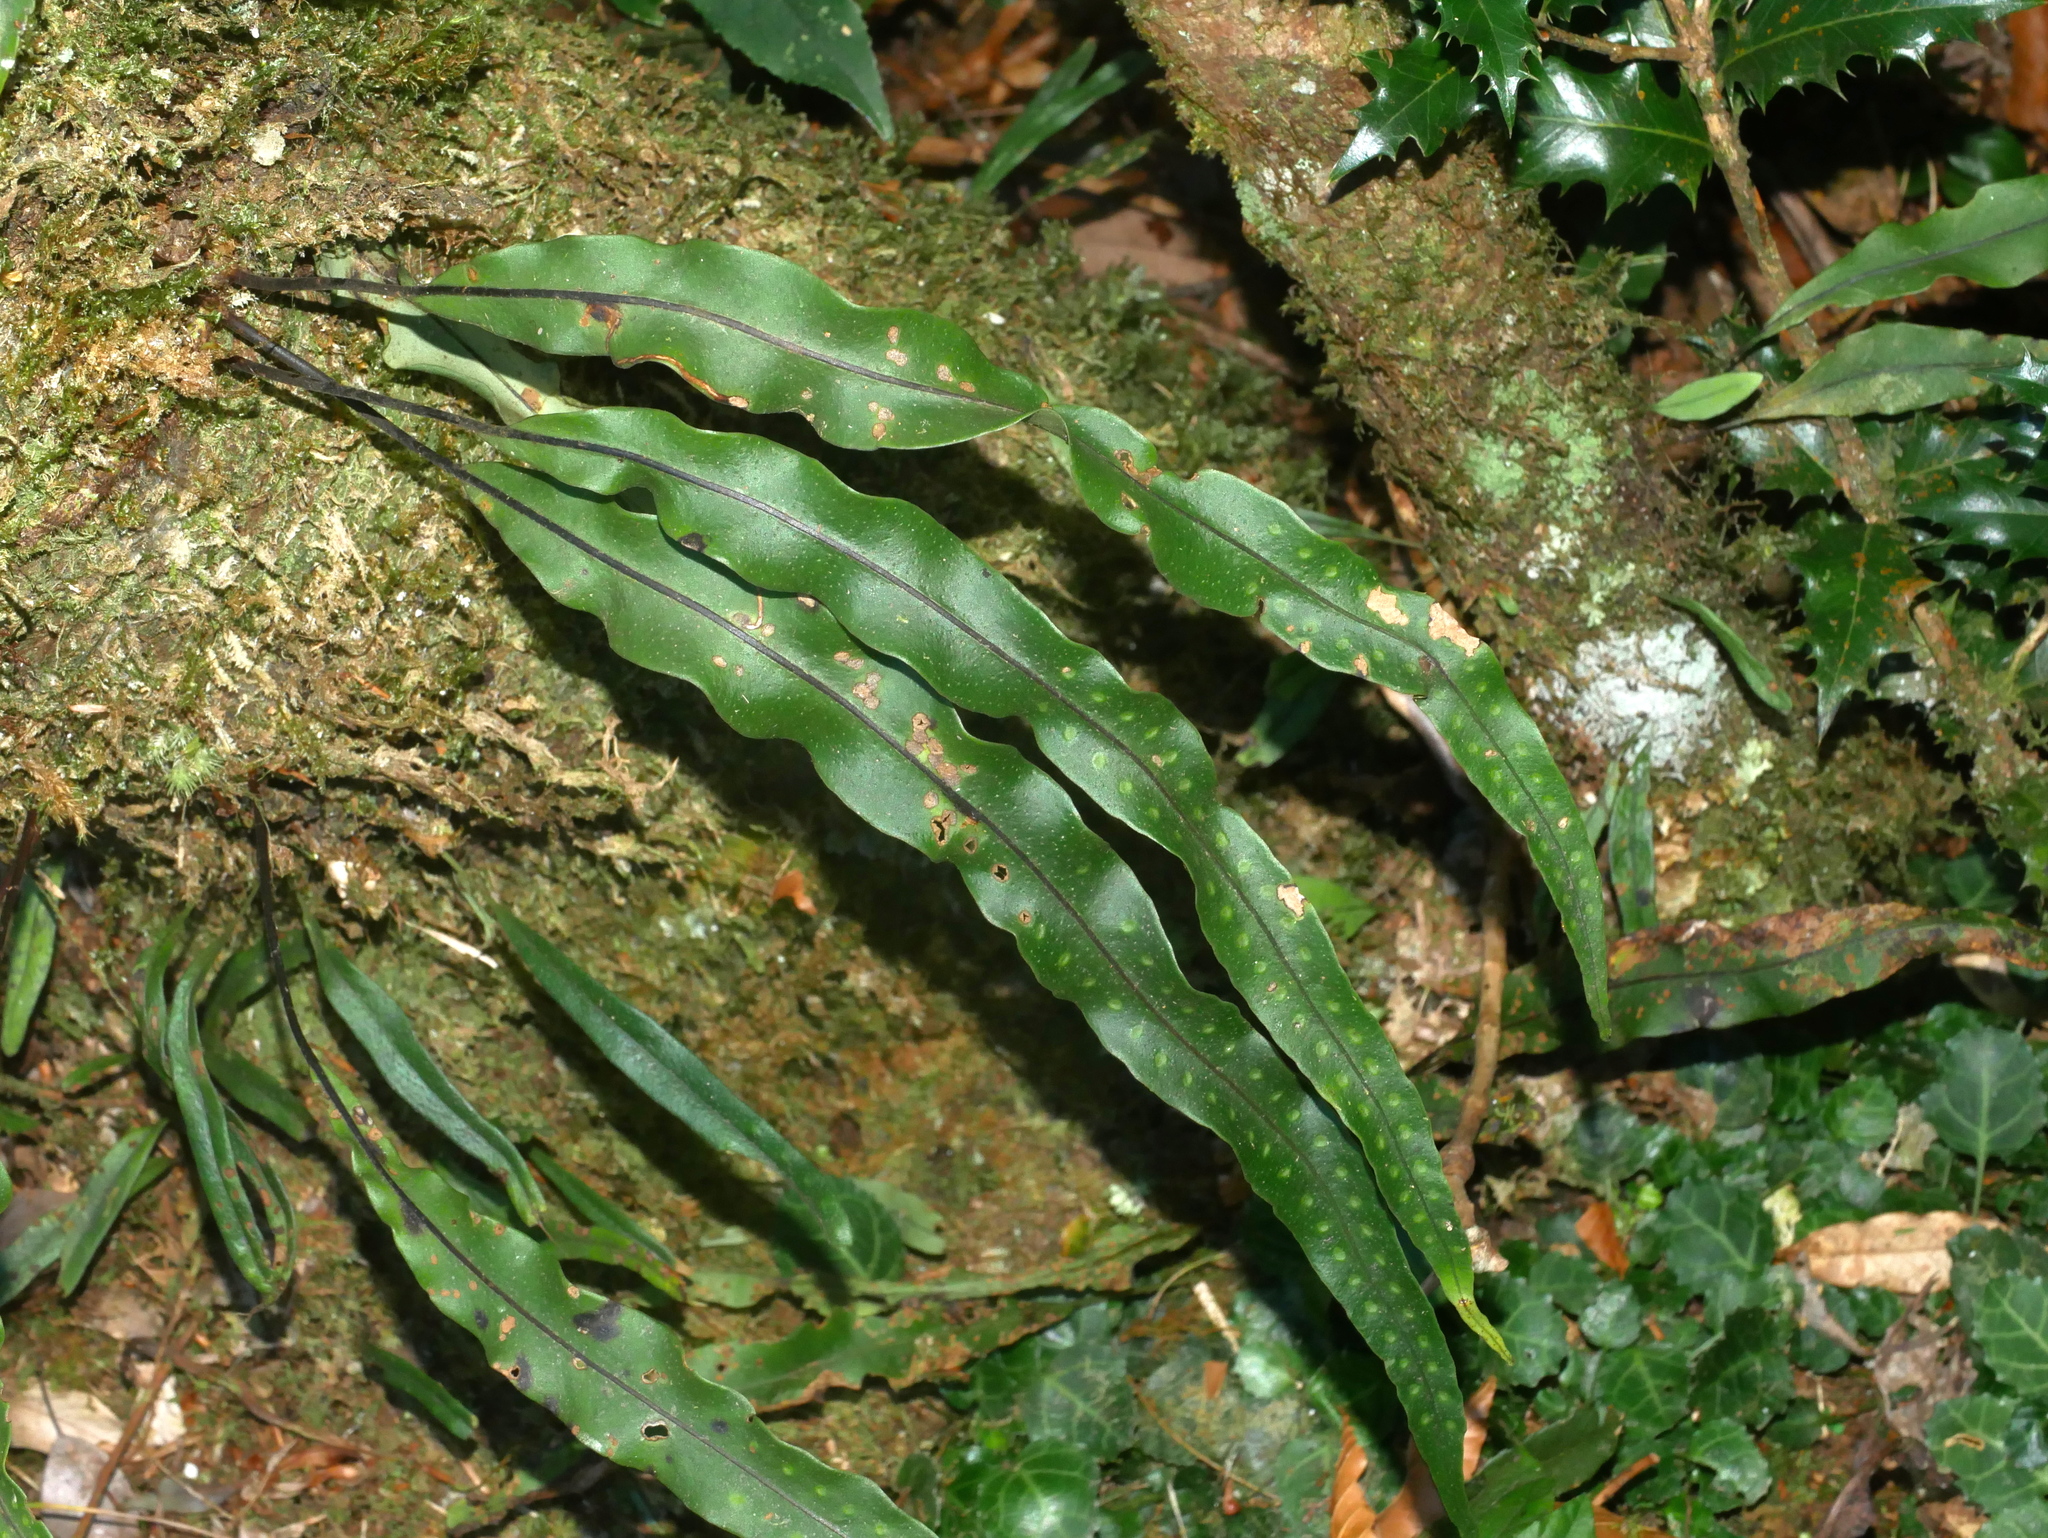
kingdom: Plantae
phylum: Tracheophyta
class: Polypodiopsida
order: Polypodiales
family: Polypodiaceae
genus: Lepisorus
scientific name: Lepisorus megasorus
